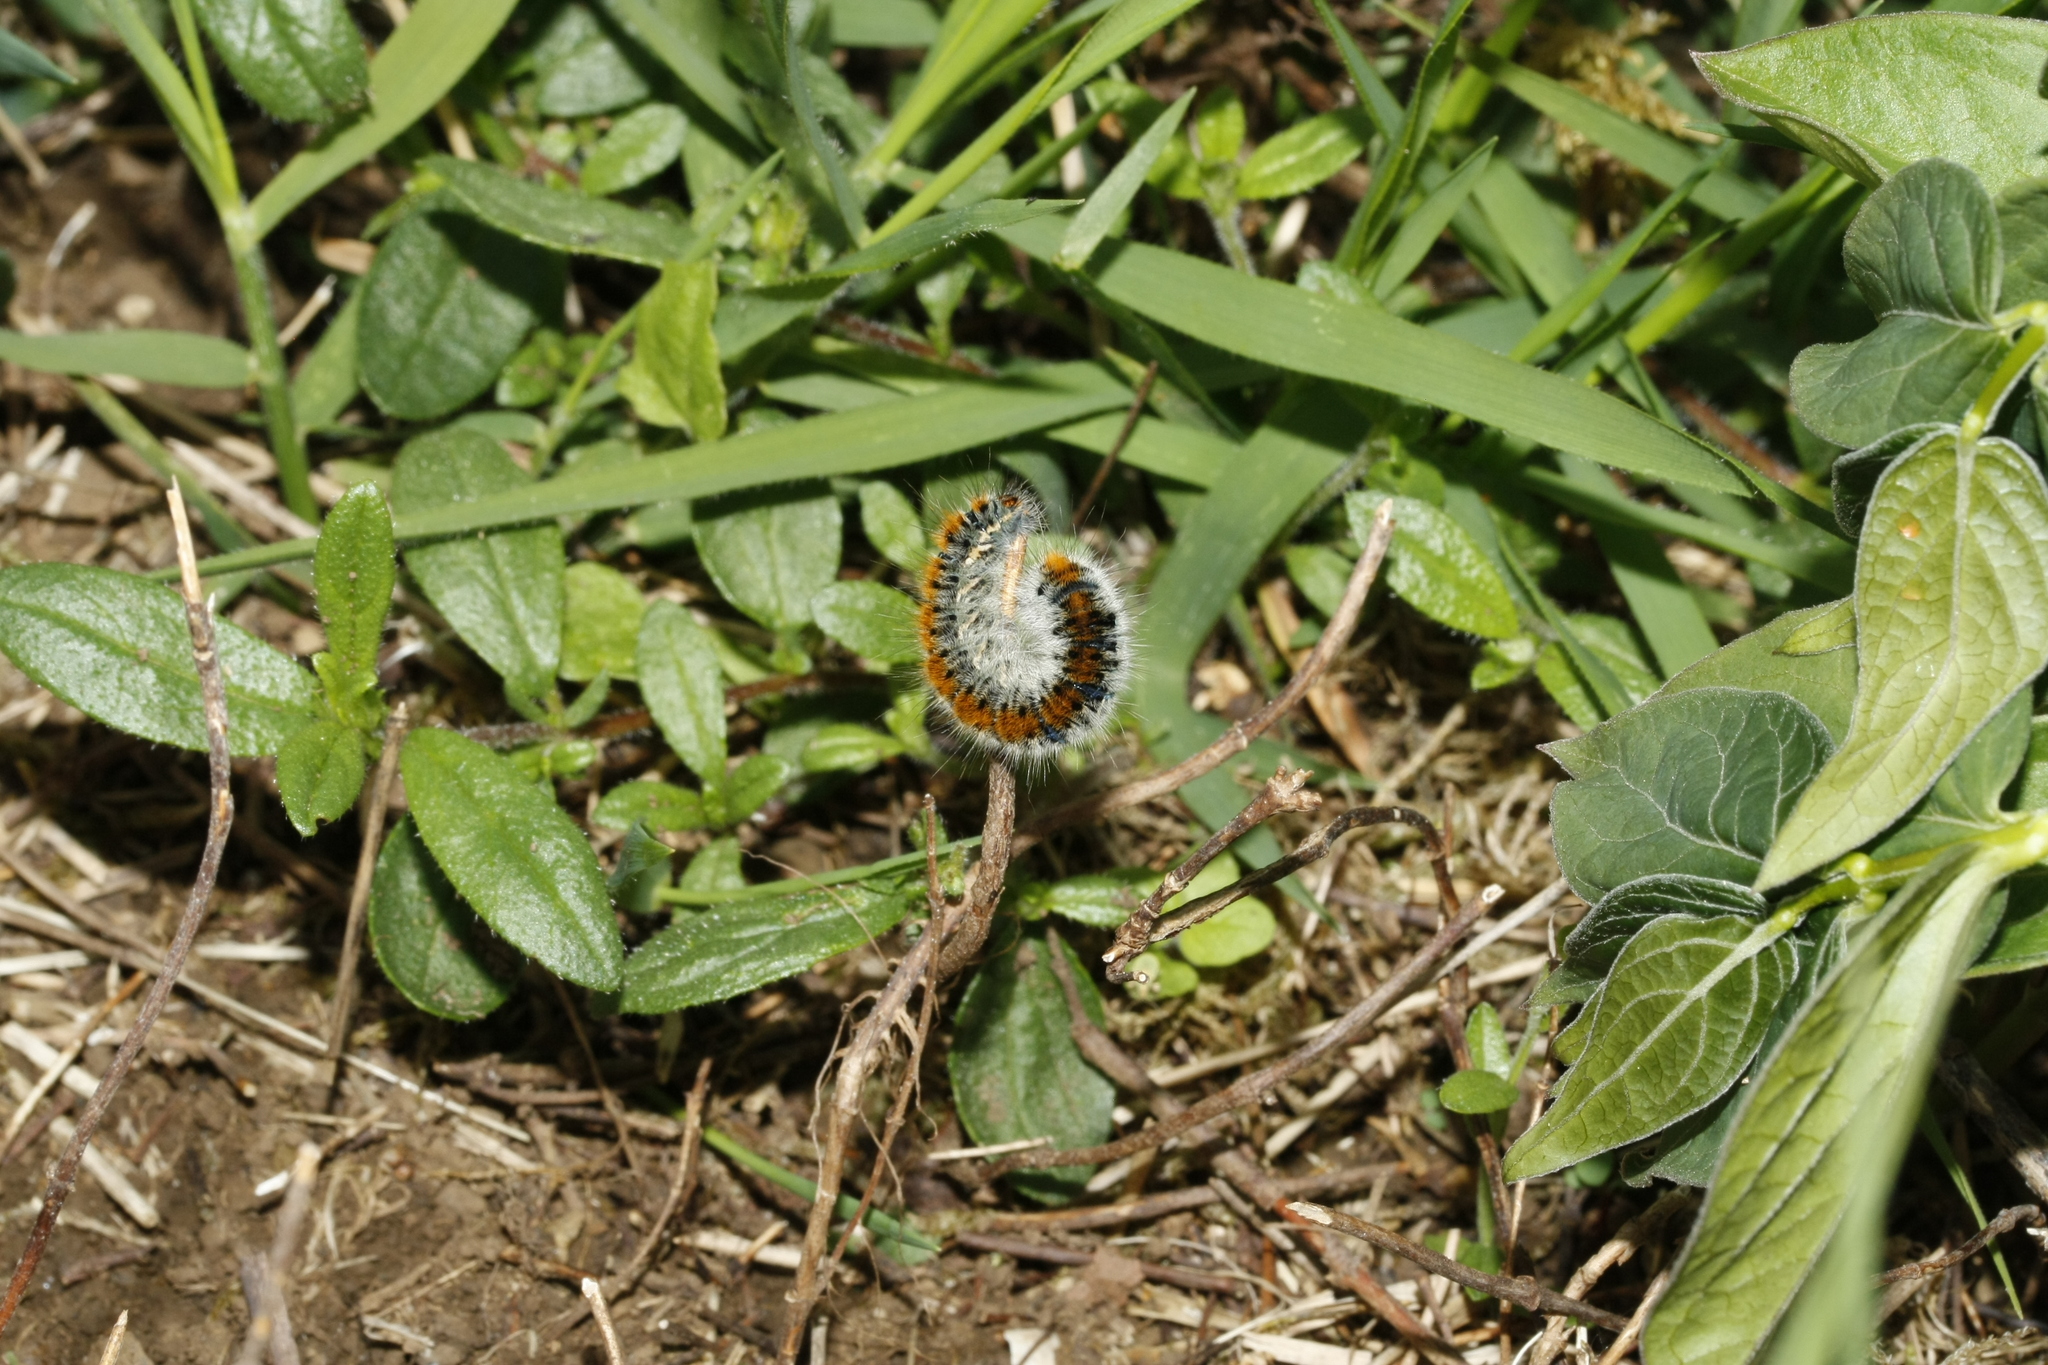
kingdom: Animalia
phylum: Arthropoda
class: Insecta
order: Lepidoptera
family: Lasiocampidae
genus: Lasiocampa
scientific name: Lasiocampa trifolii
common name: Grass eggar
